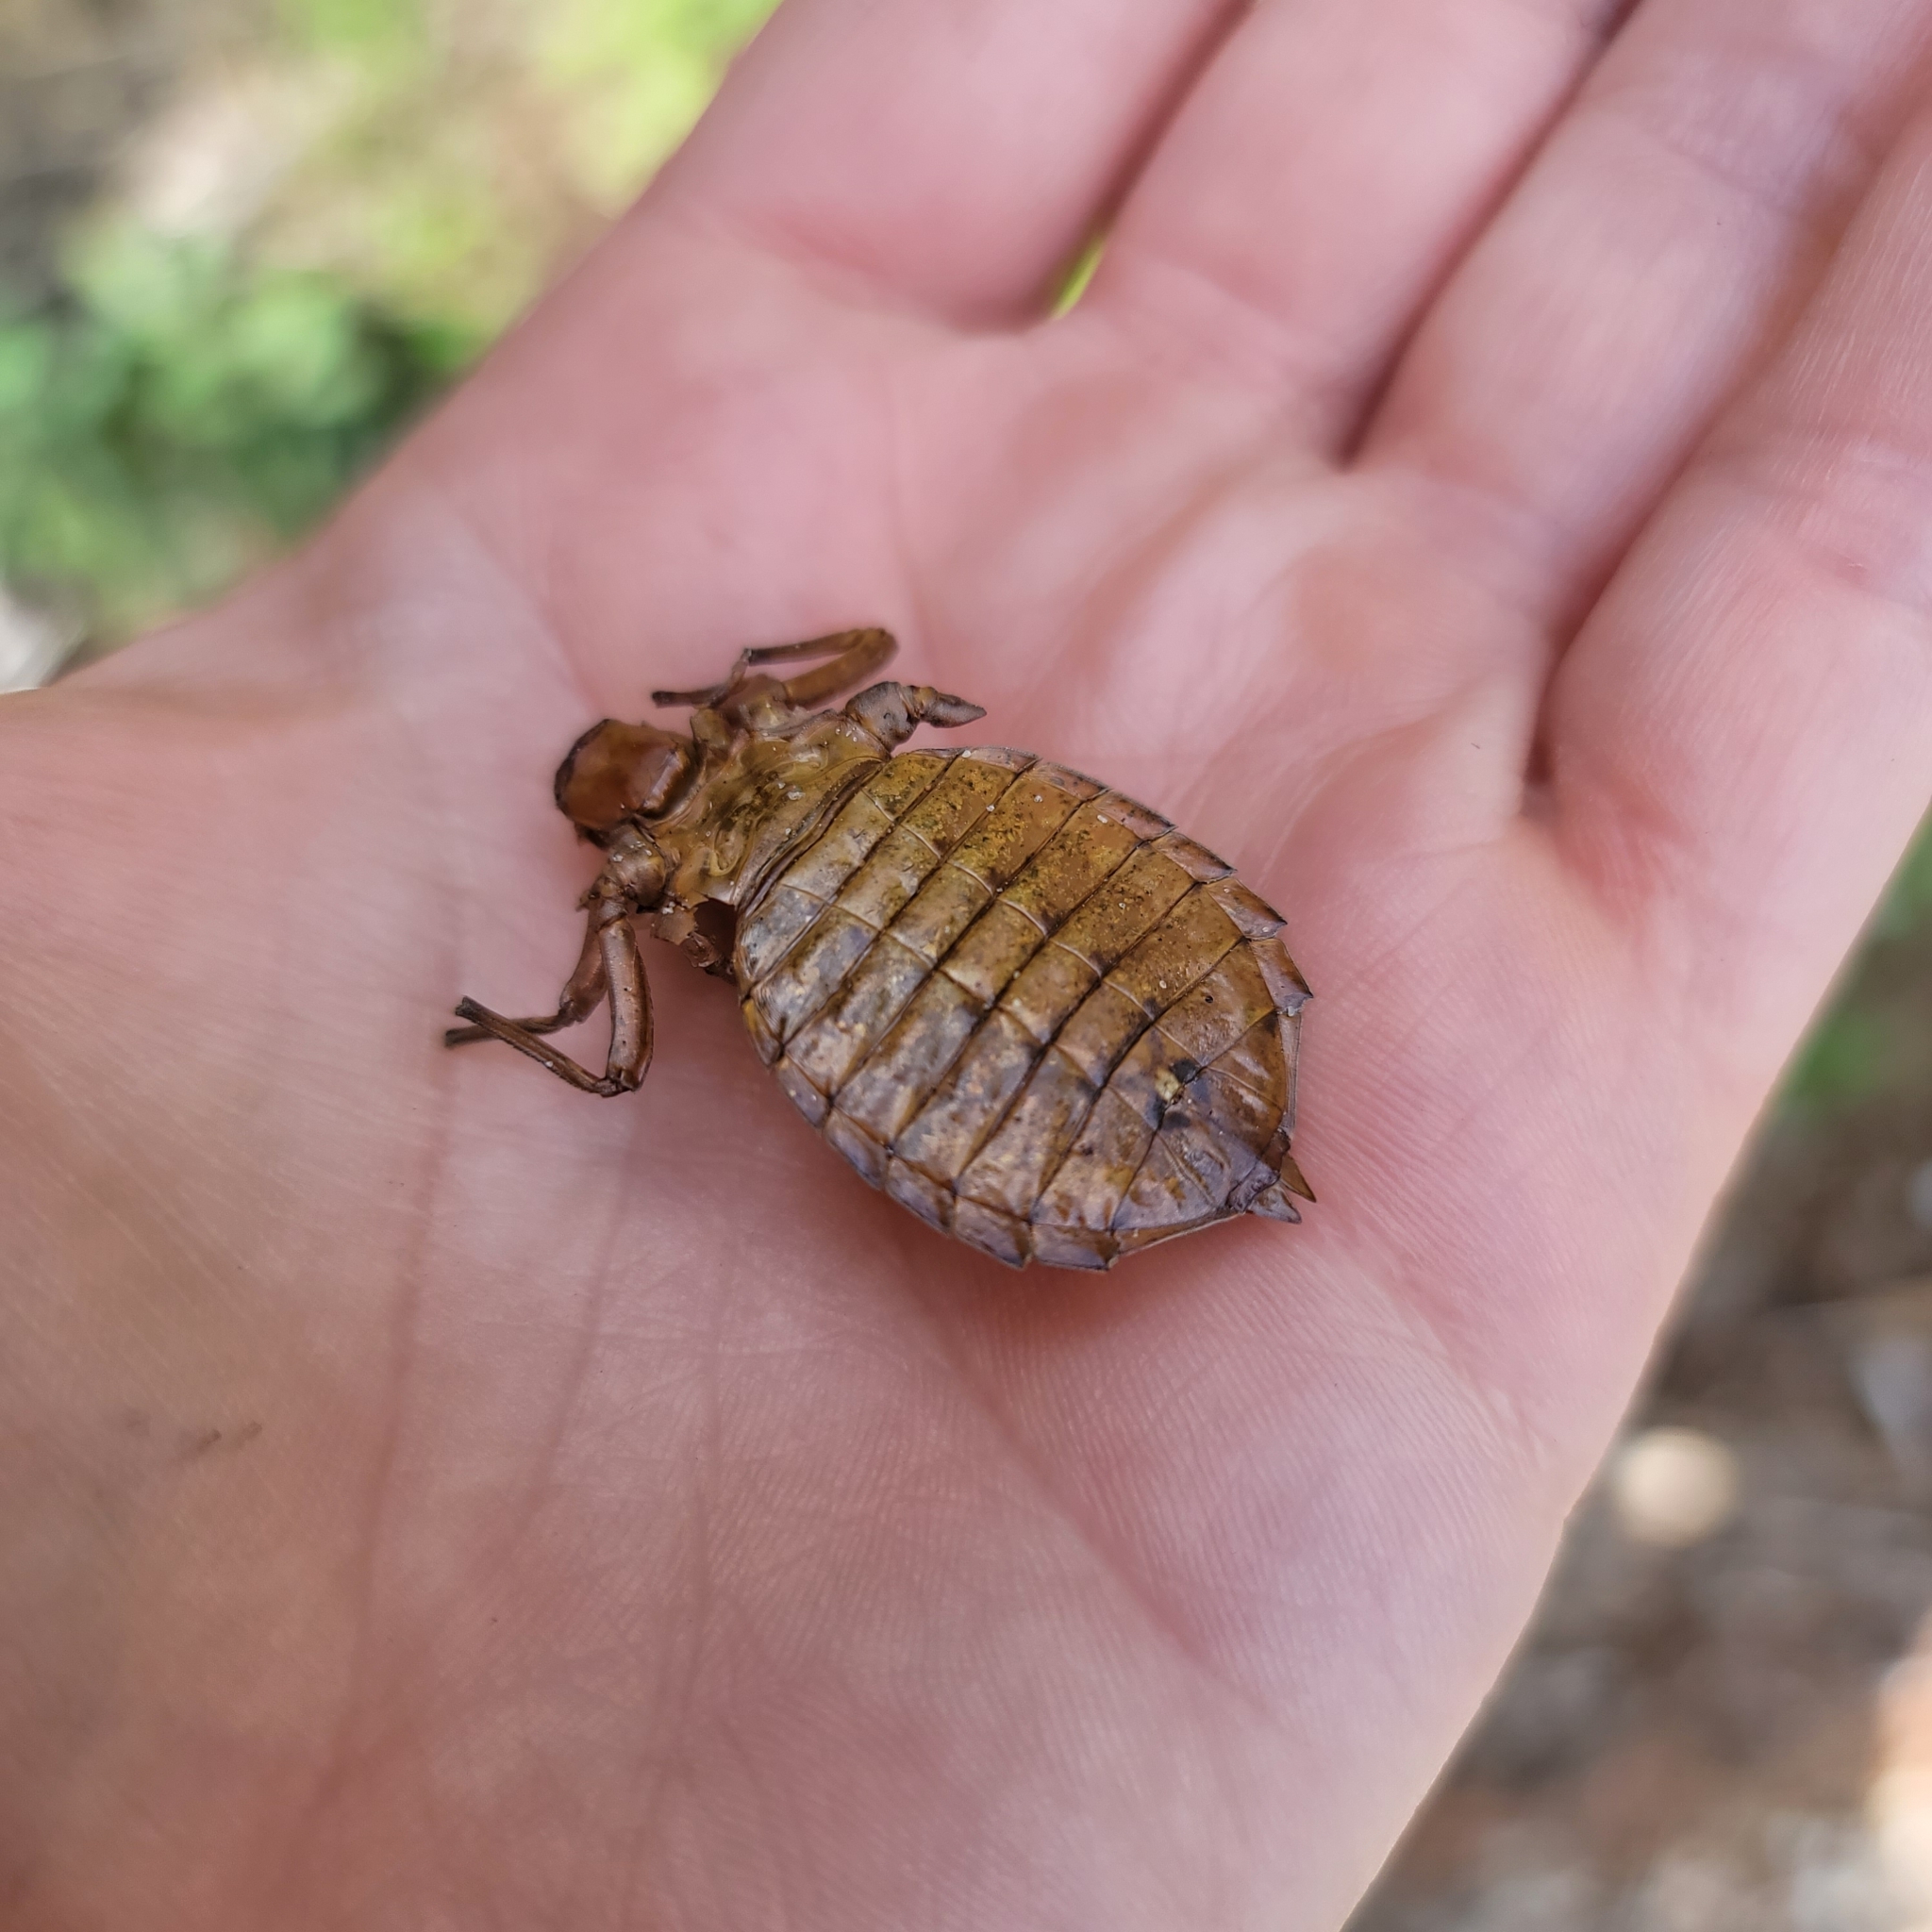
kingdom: Animalia
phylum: Arthropoda
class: Insecta
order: Odonata
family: Gomphidae
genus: Hagenius
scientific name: Hagenius brevistylus
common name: Dragonhunter
